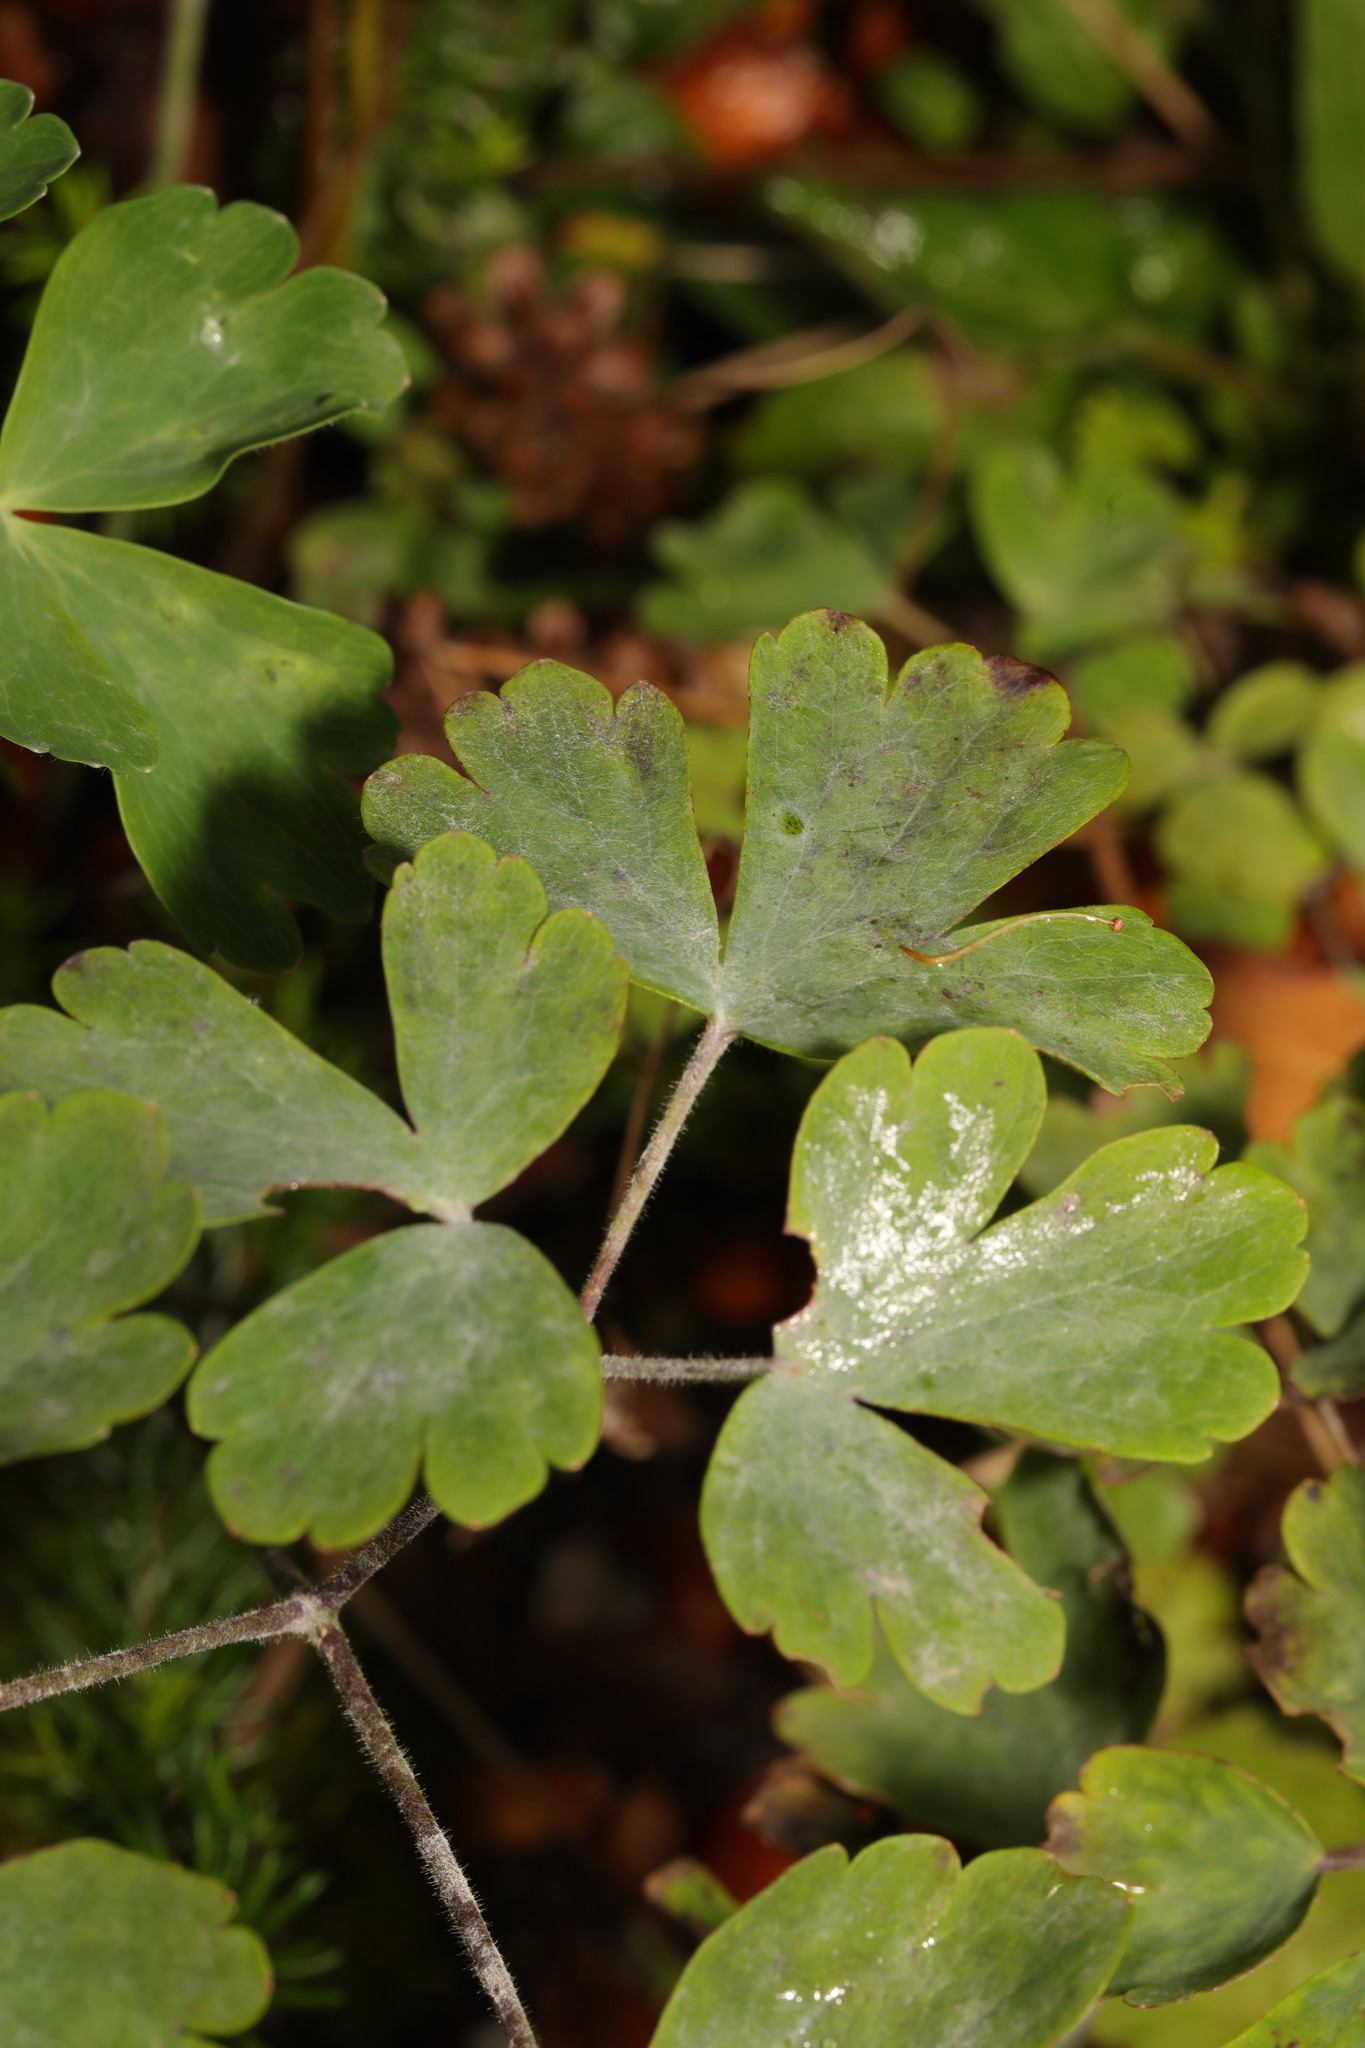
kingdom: Fungi
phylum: Ascomycota
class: Leotiomycetes
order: Helotiales
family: Erysiphaceae
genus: Erysiphe
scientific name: Erysiphe aquilegiae
